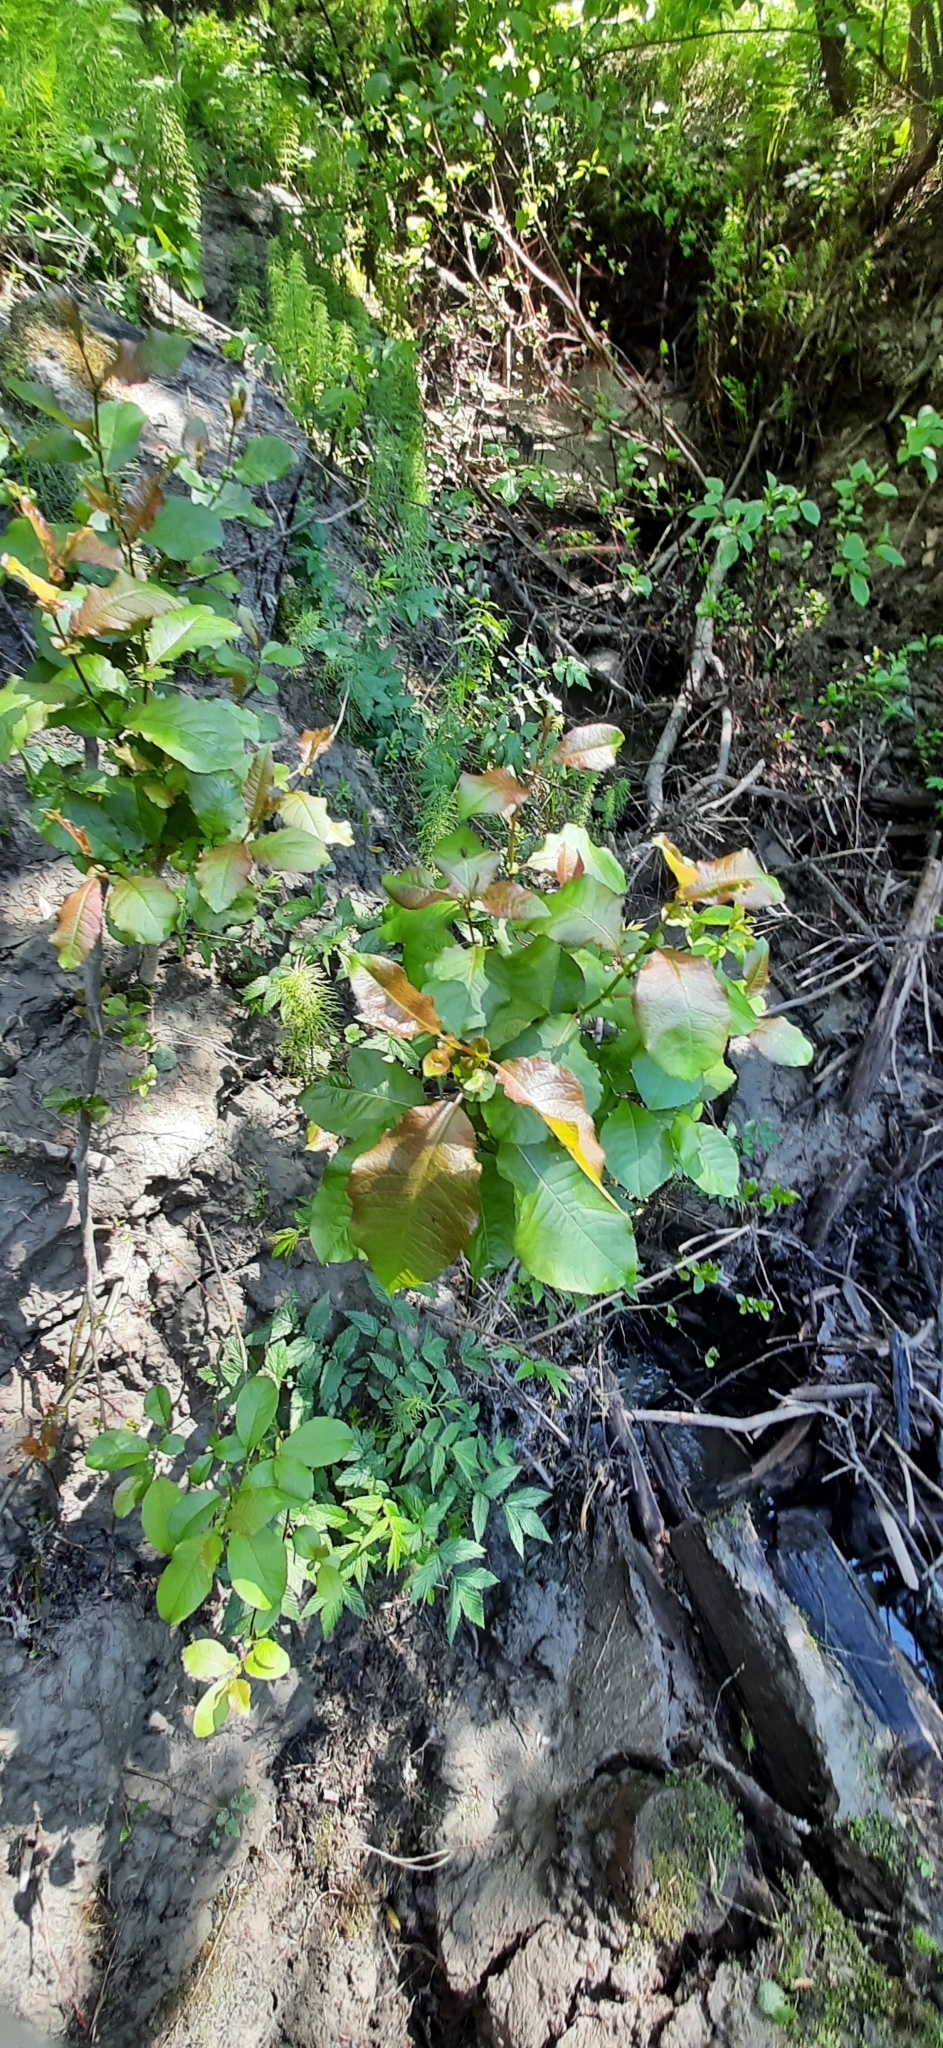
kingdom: Plantae
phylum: Tracheophyta
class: Magnoliopsida
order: Malpighiales
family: Salicaceae
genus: Salix
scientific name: Salix pyrolifolia
